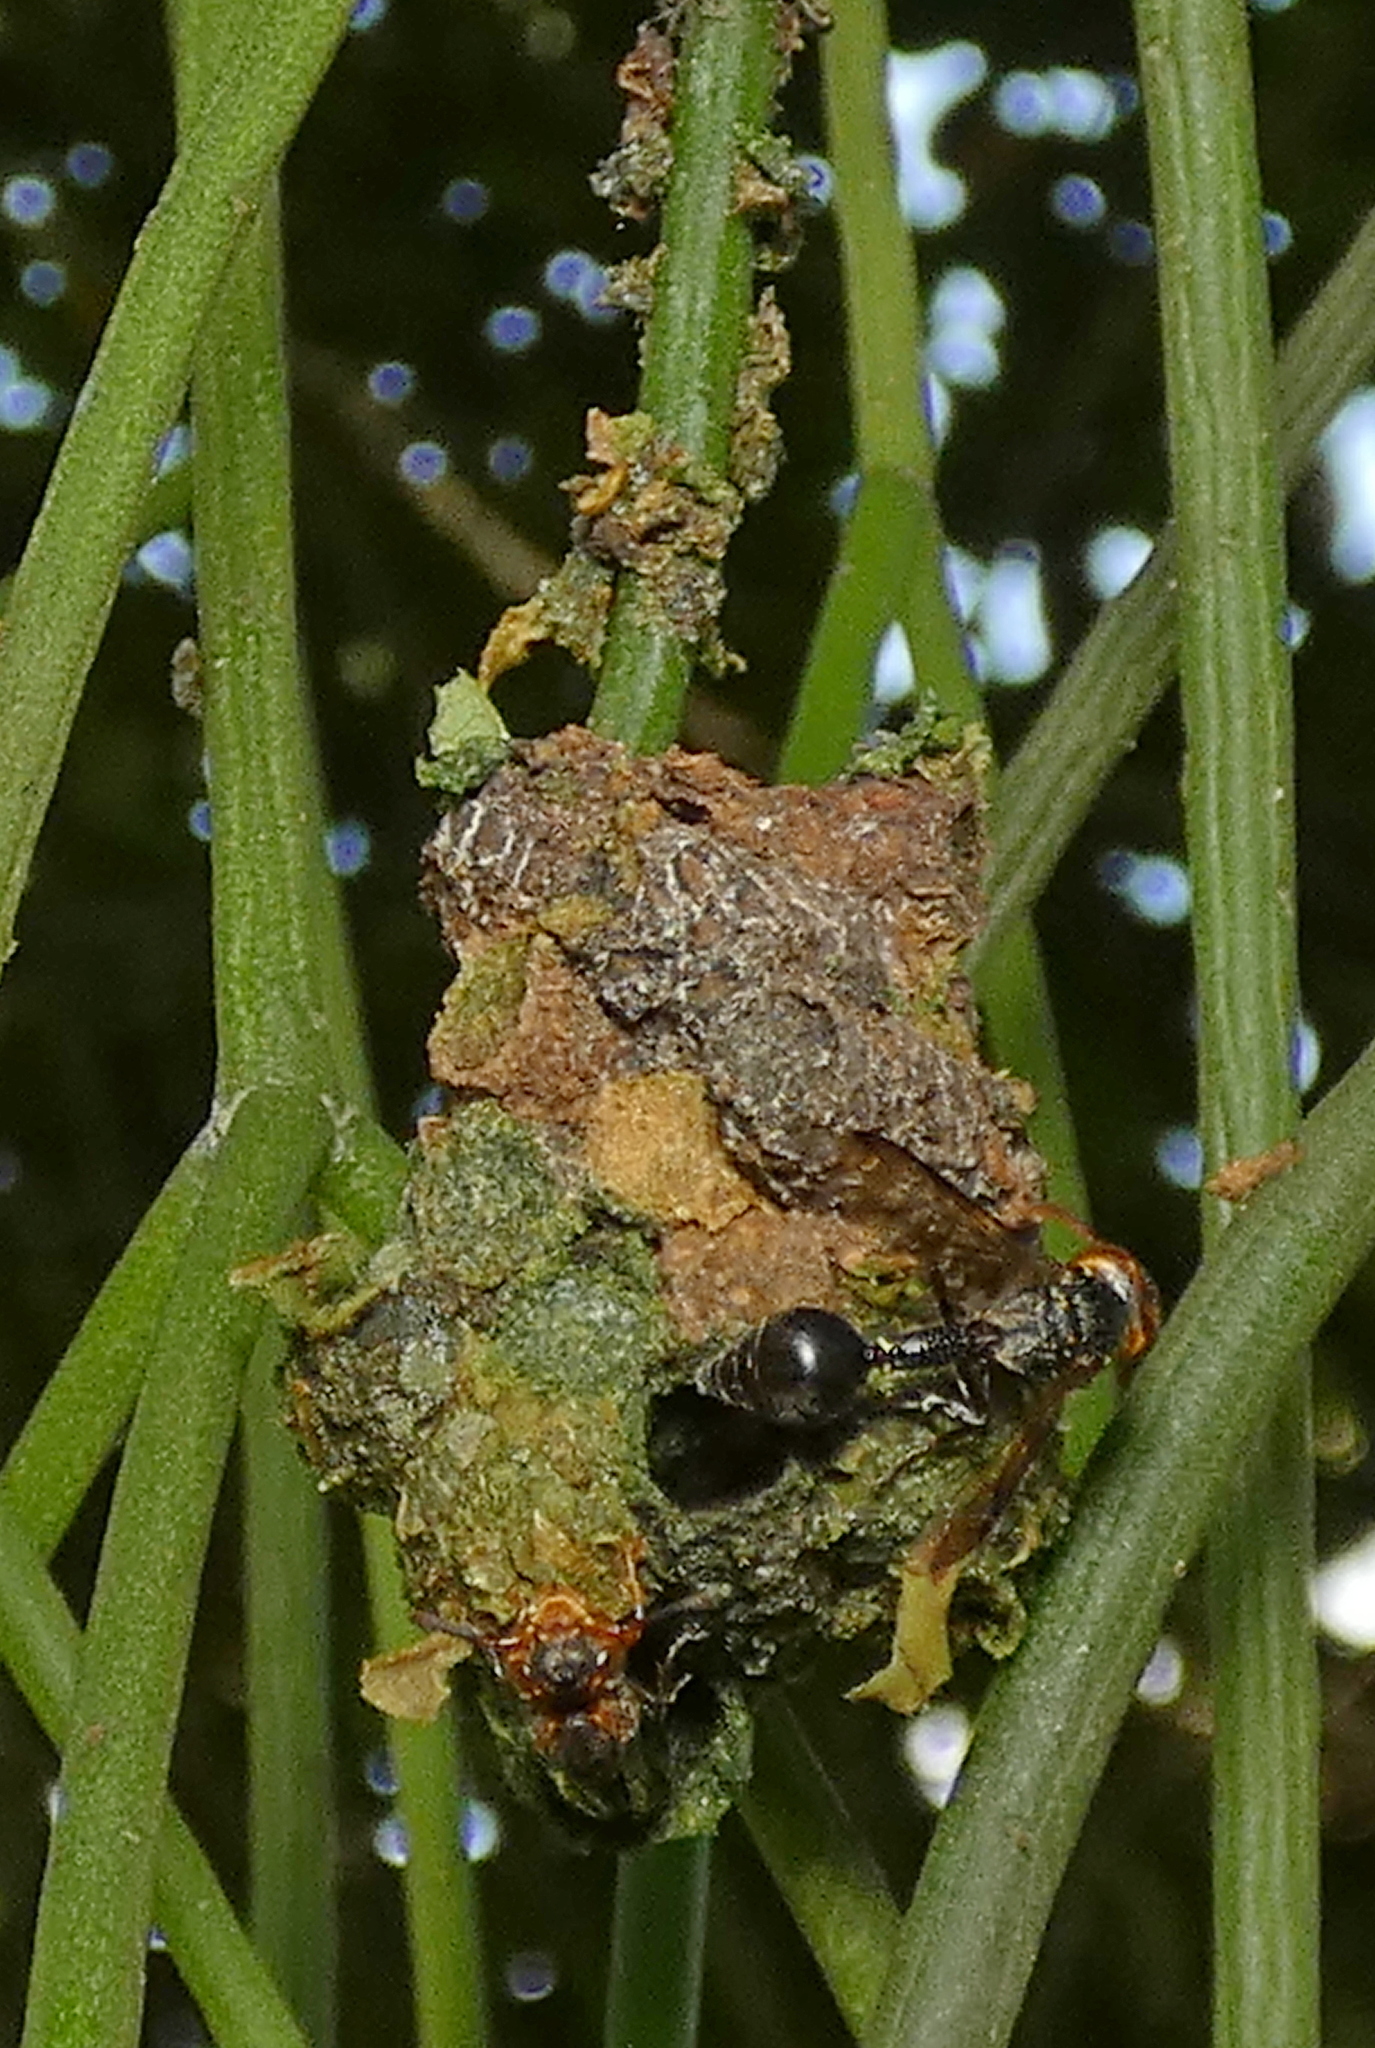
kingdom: Animalia
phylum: Arthropoda
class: Insecta
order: Hymenoptera
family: Eumenidae
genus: Zethus
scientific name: Zethus miniatus
